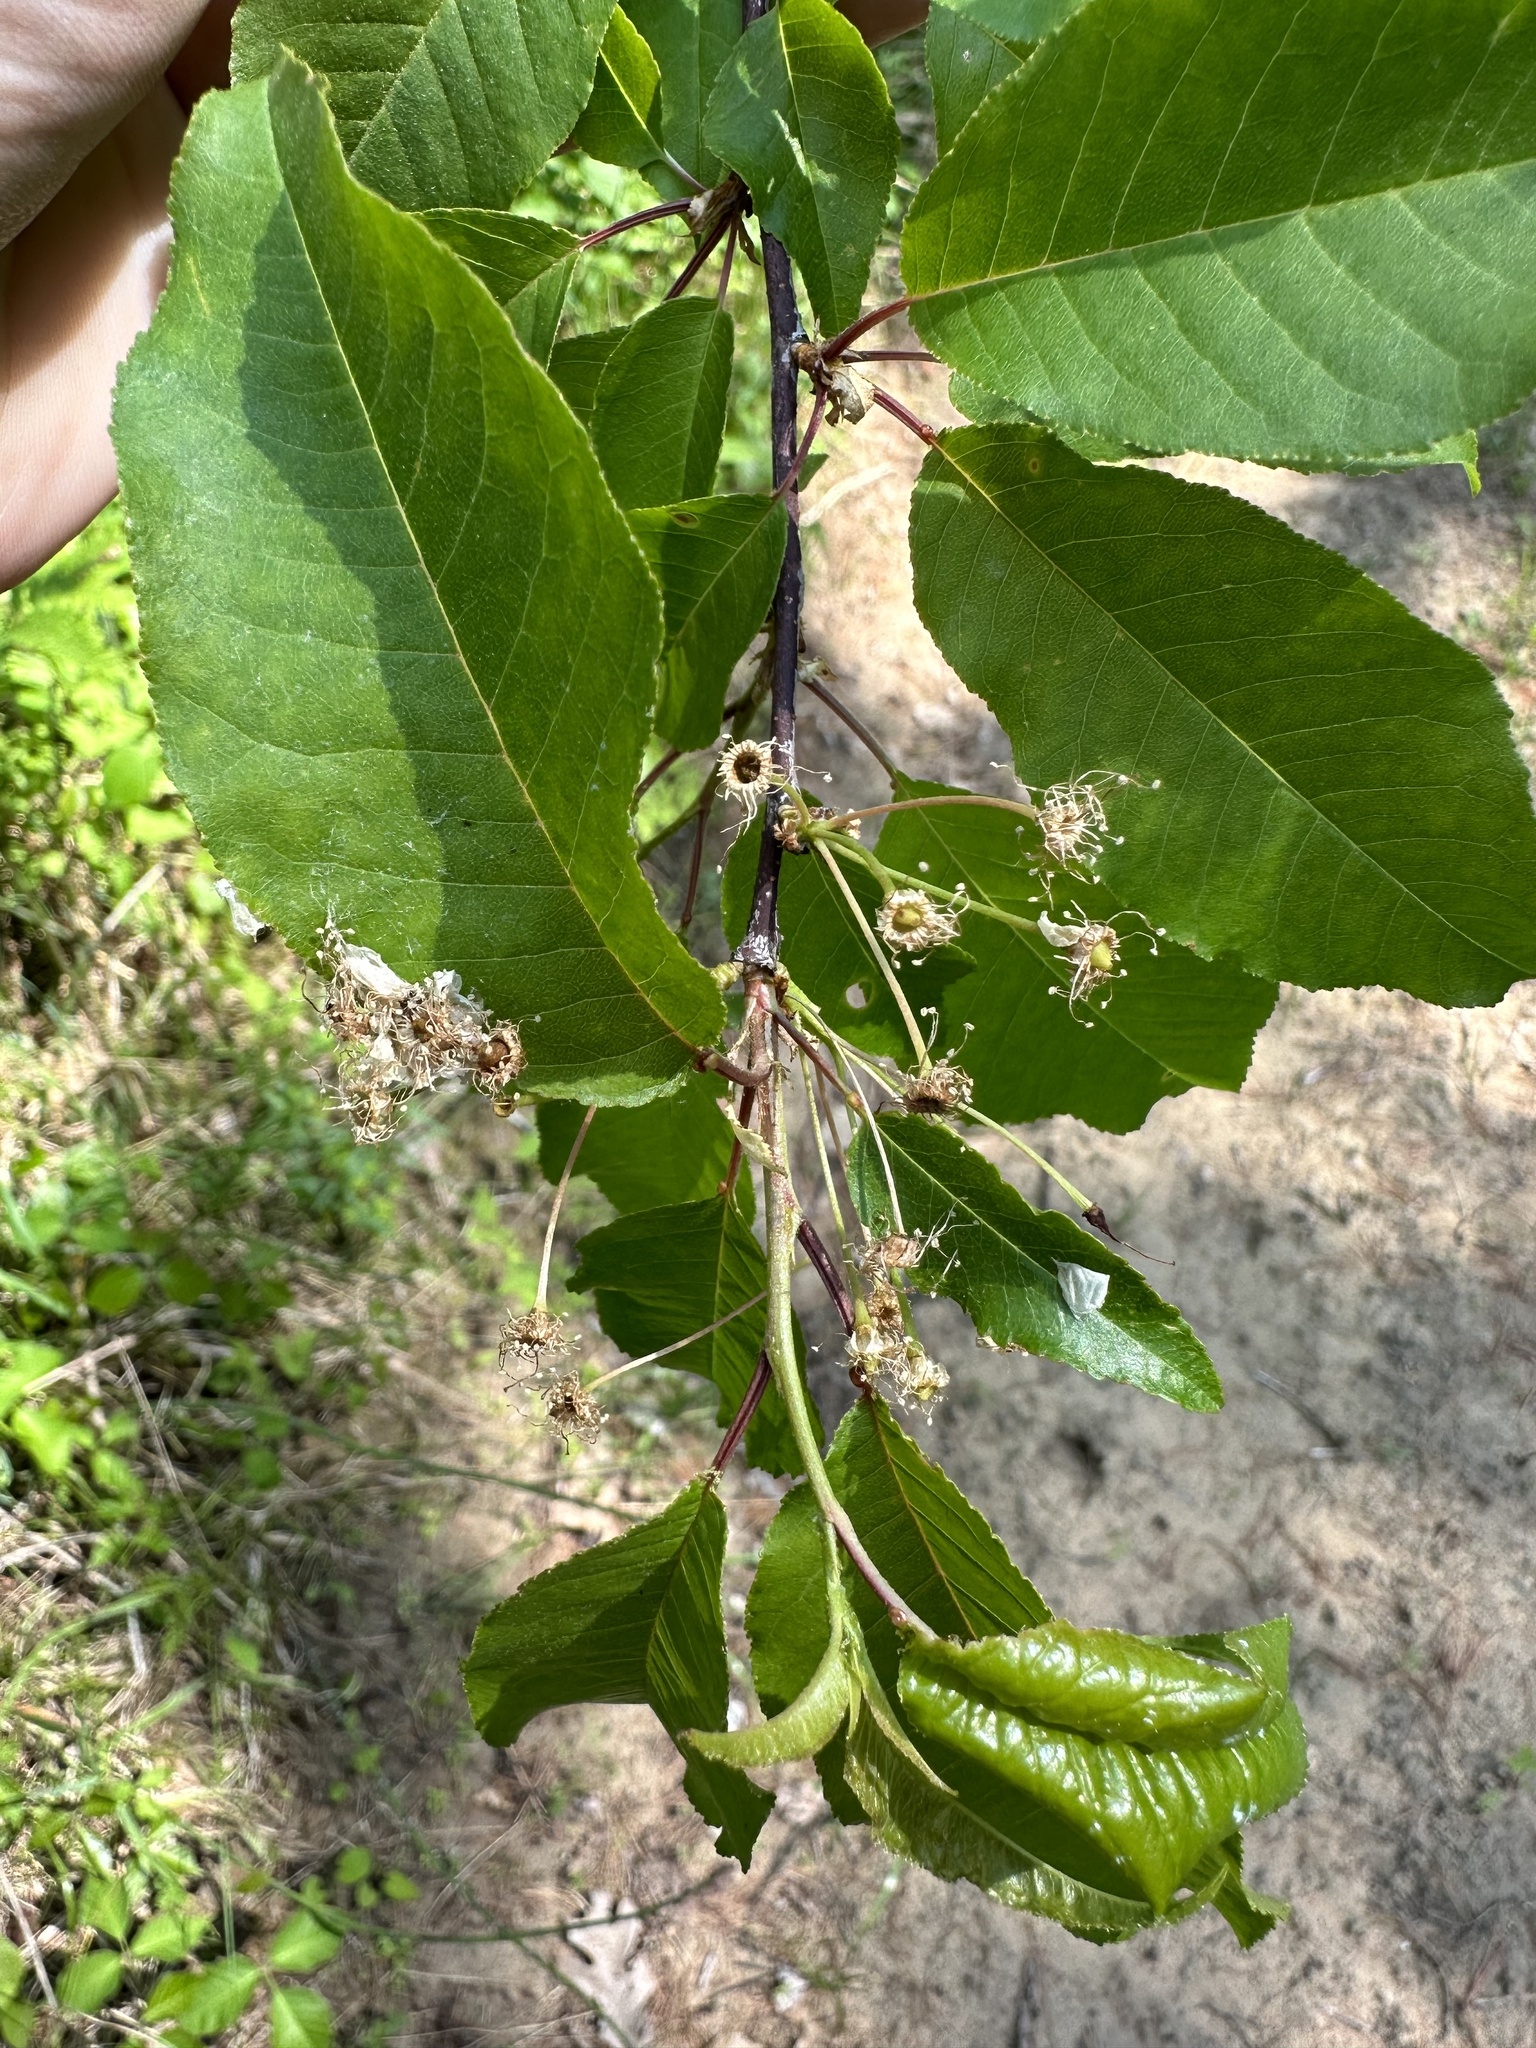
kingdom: Plantae
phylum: Tracheophyta
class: Magnoliopsida
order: Rosales
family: Rosaceae
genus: Prunus
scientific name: Prunus pensylvanica
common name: Pin cherry
